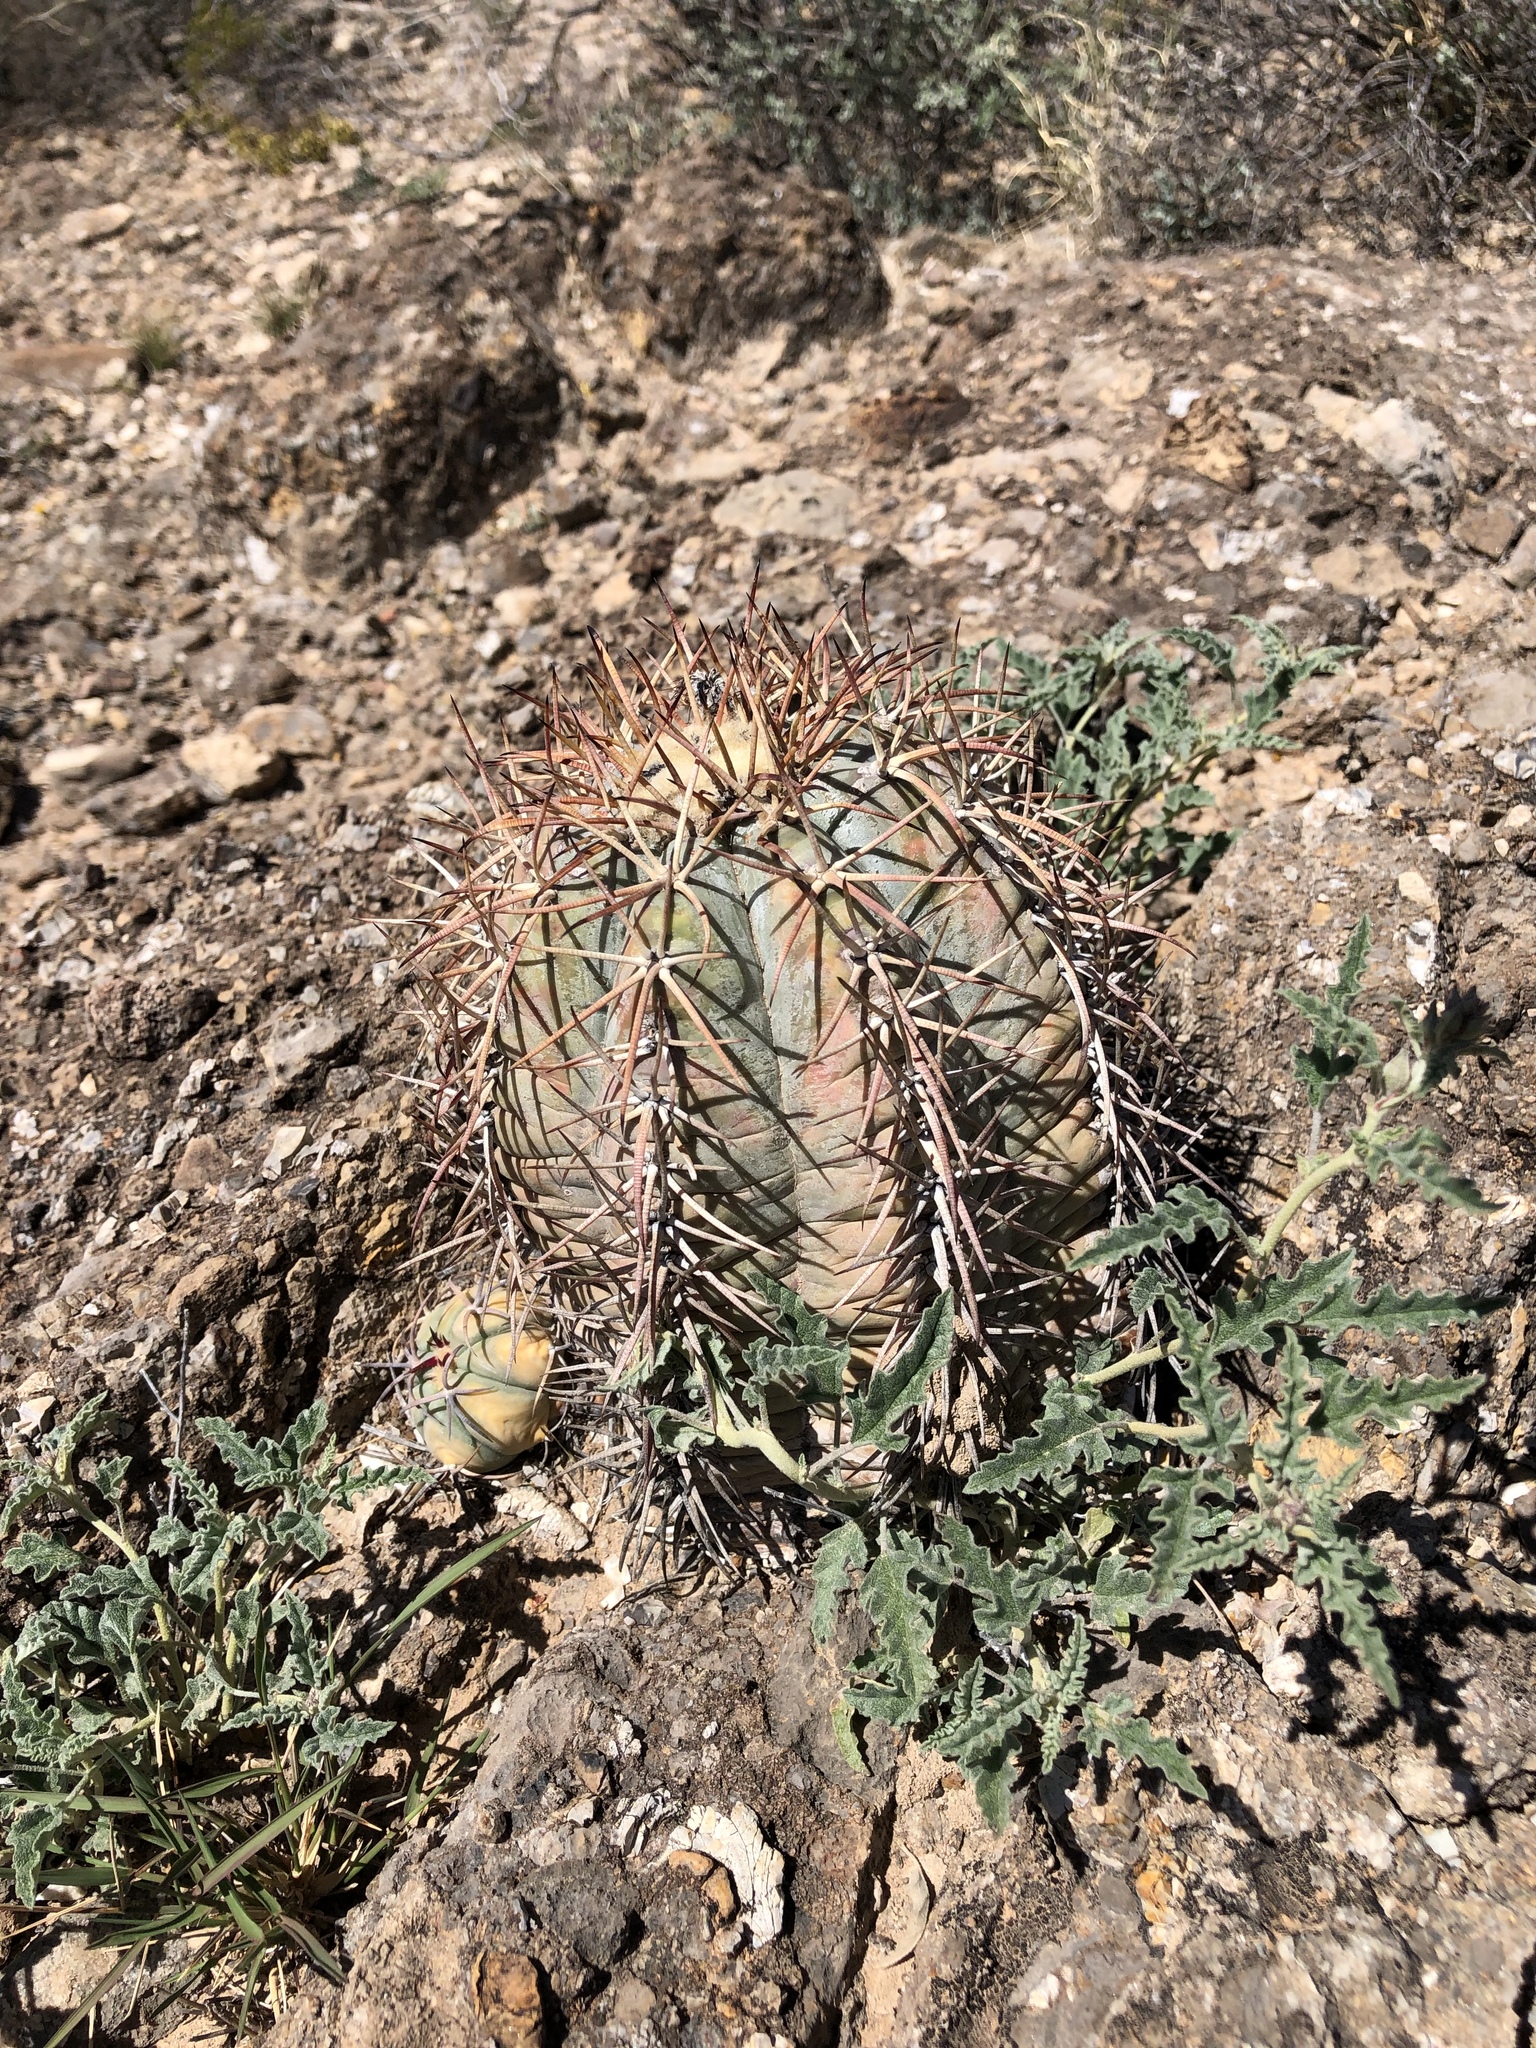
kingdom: Plantae
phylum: Tracheophyta
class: Magnoliopsida
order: Caryophyllales
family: Cactaceae
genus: Echinocactus
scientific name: Echinocactus horizonthalonius
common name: Devilshead
